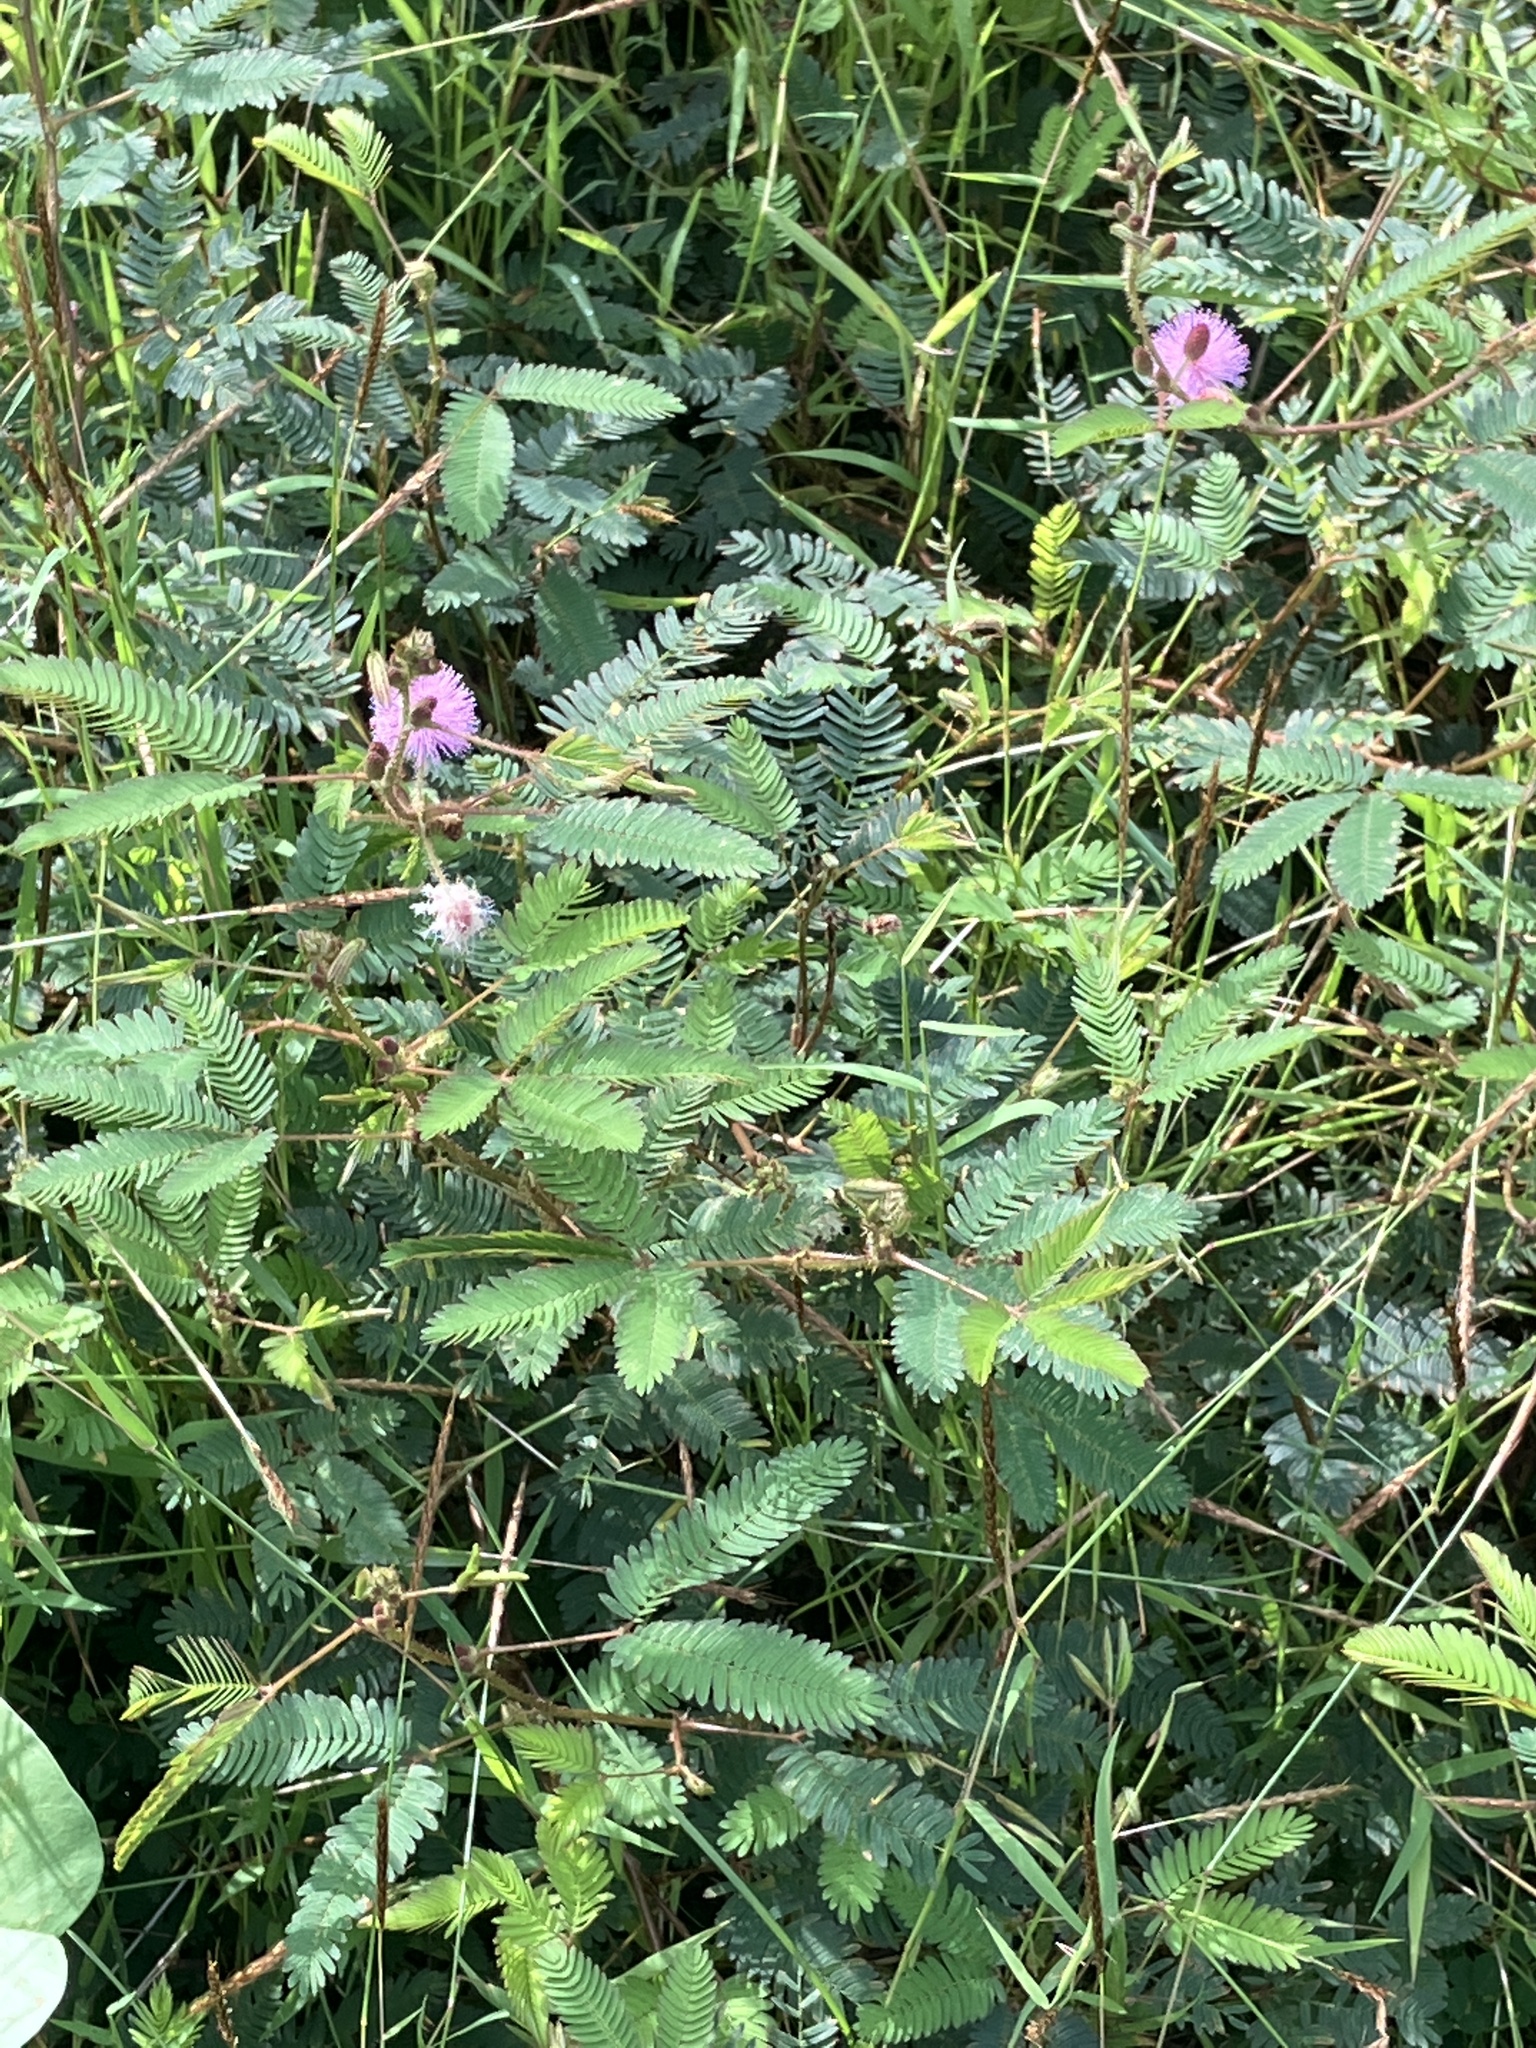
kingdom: Plantae
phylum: Tracheophyta
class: Magnoliopsida
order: Fabales
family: Fabaceae
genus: Mimosa
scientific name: Mimosa pudica
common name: Sensitive plant
